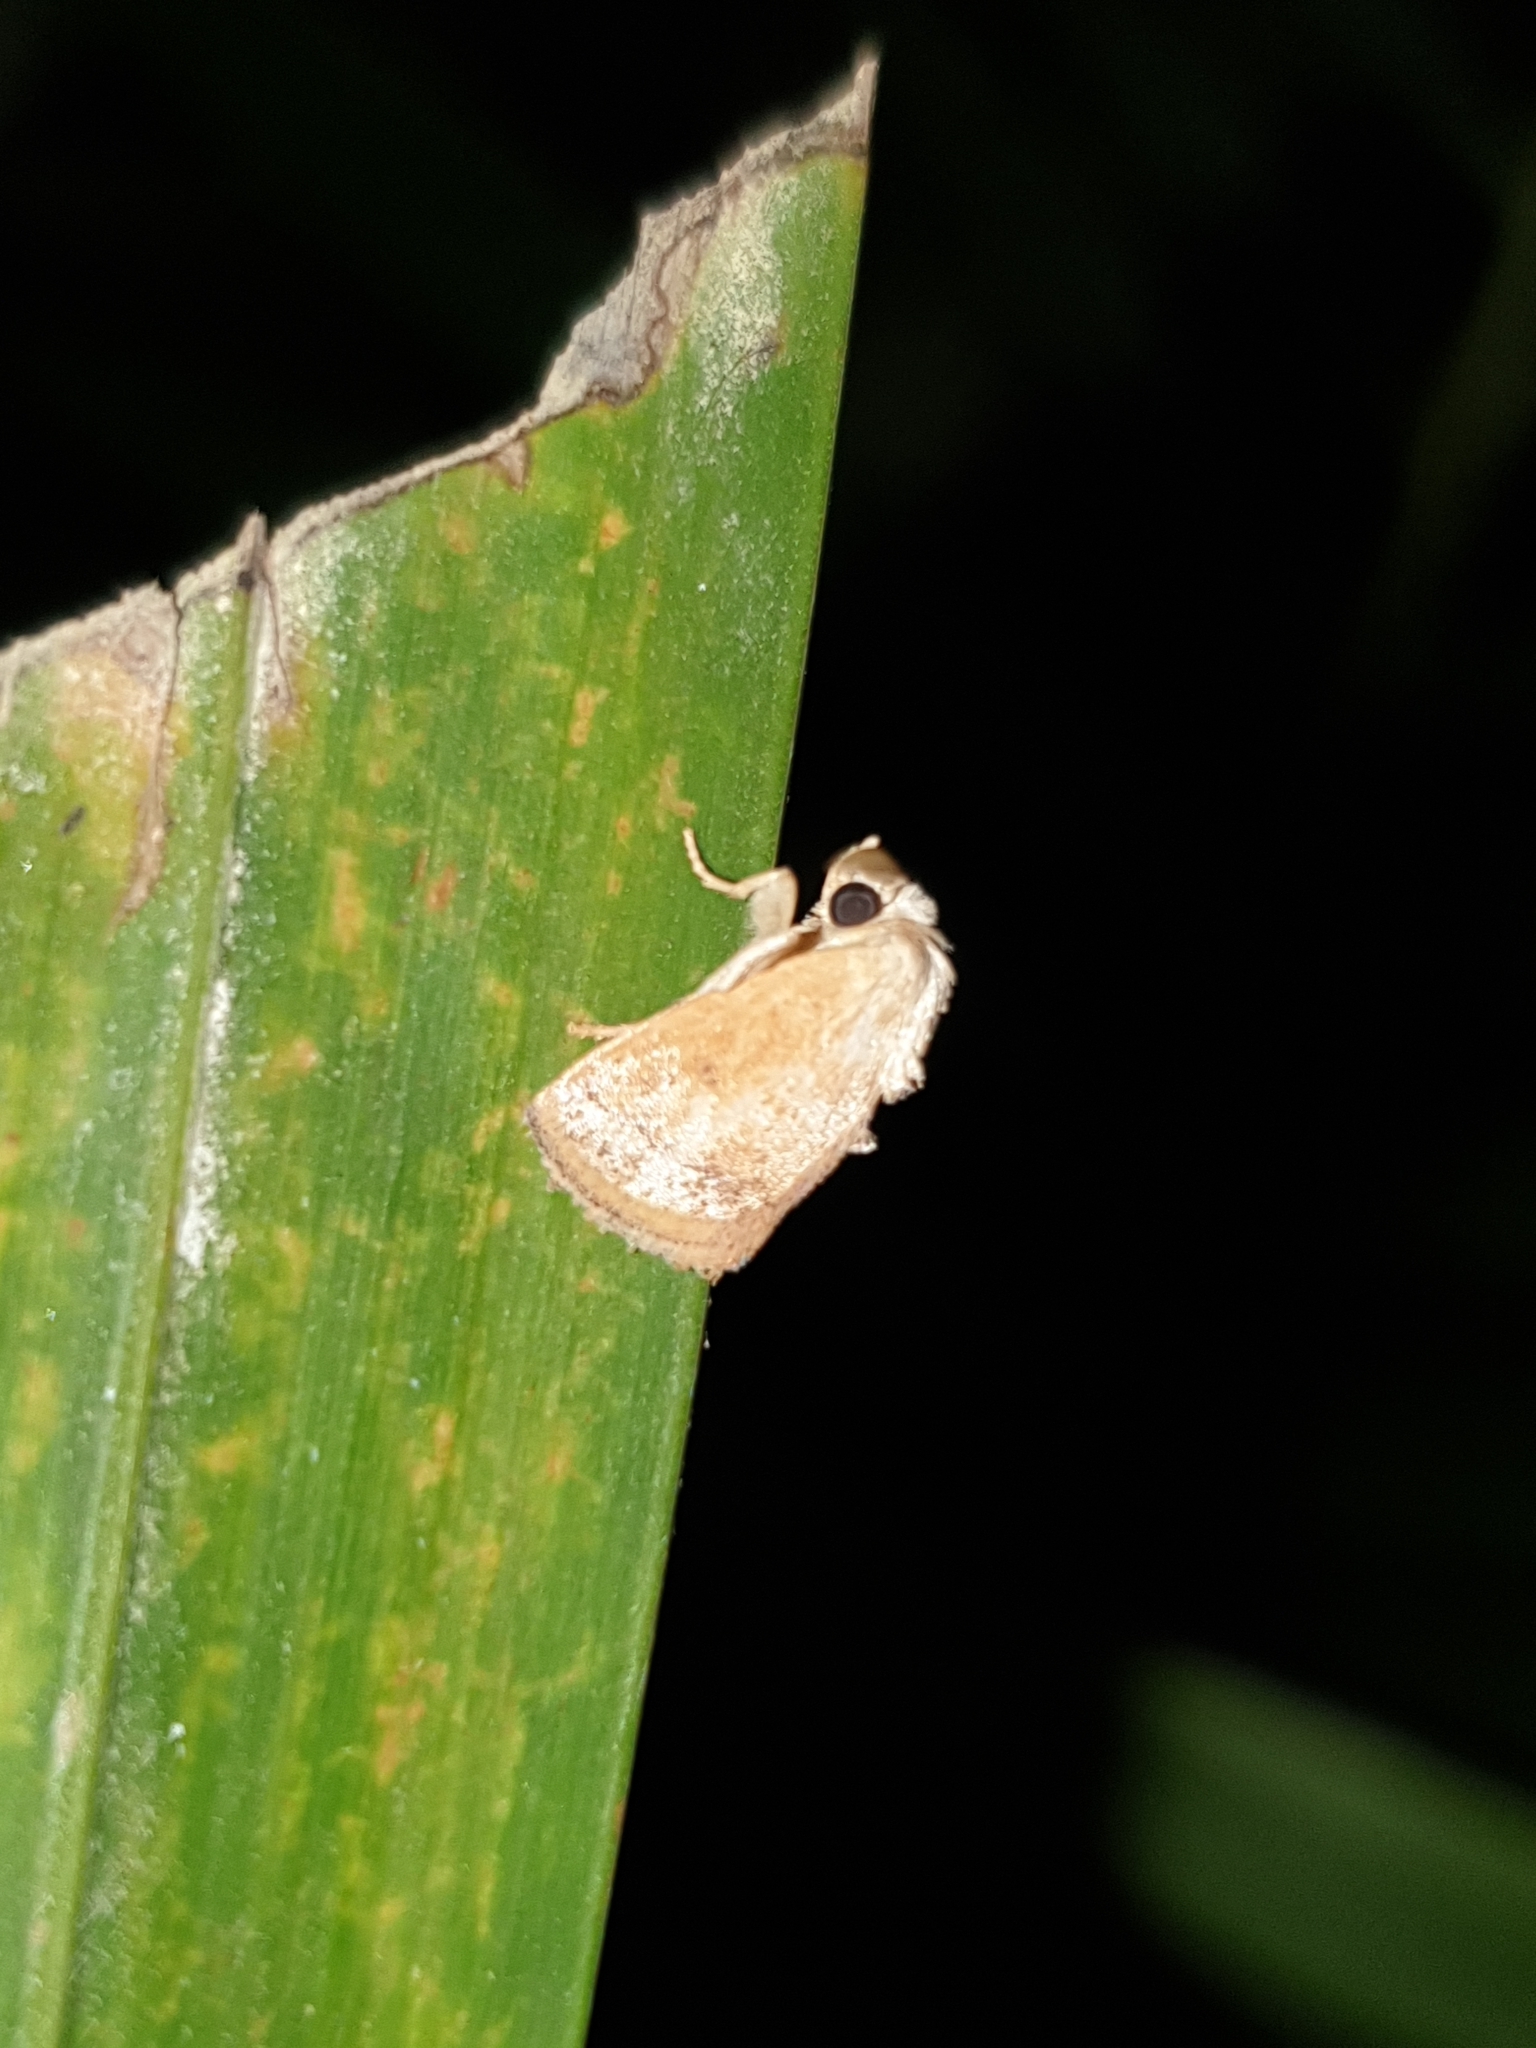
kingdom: Animalia
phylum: Arthropoda
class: Insecta
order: Lepidoptera
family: Limacodidae
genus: Oxyplax
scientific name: Oxyplax
